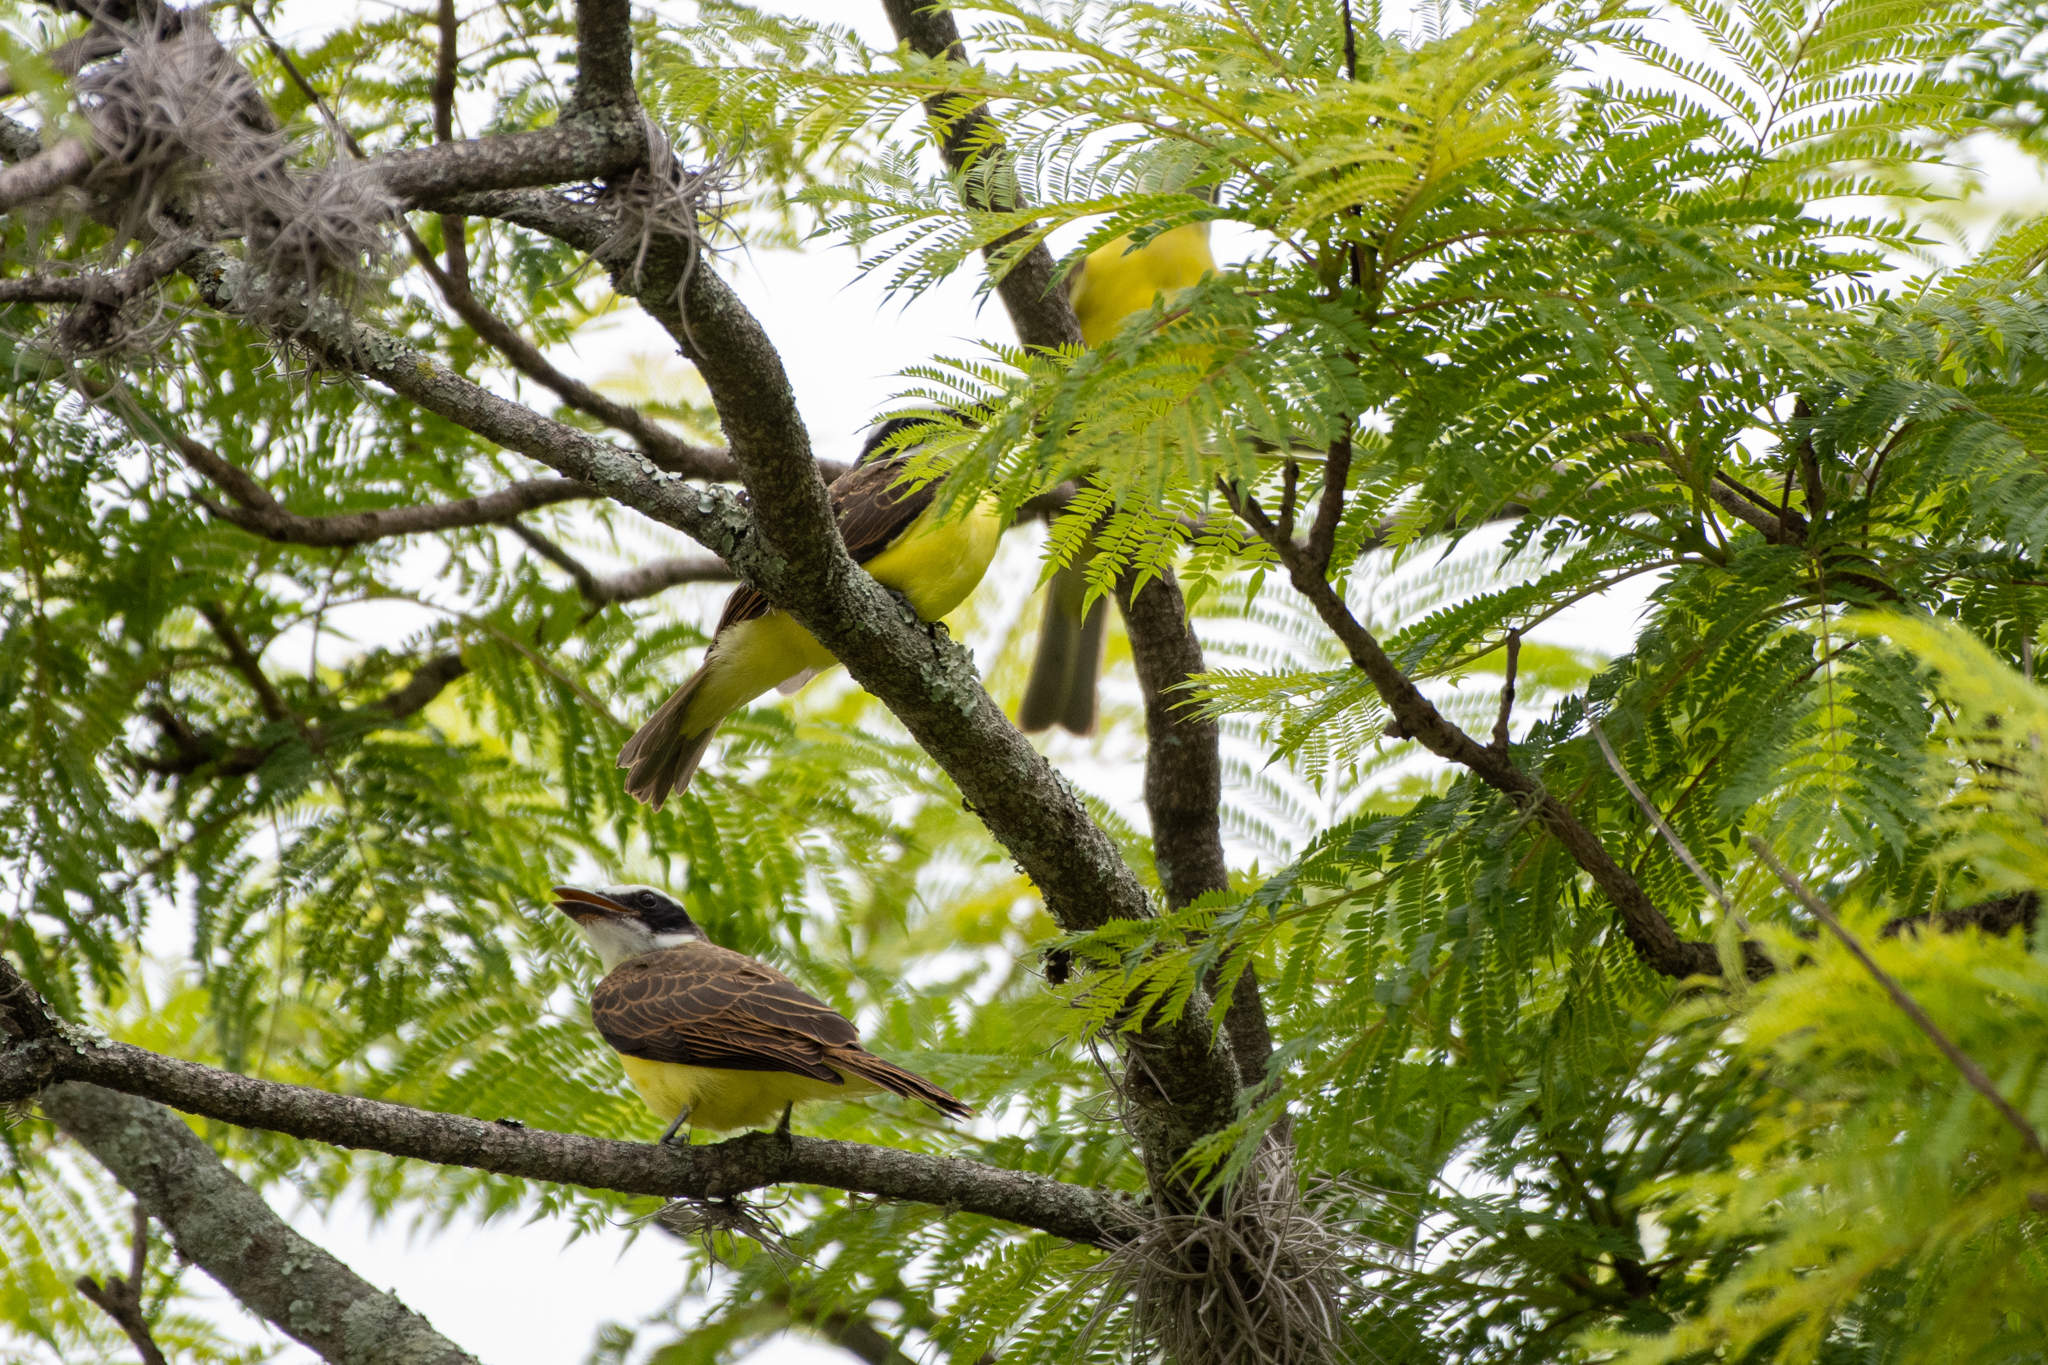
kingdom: Animalia
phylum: Chordata
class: Aves
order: Passeriformes
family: Tyrannidae
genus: Megarynchus
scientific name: Megarynchus pitangua
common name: Boat-billed flycatcher
